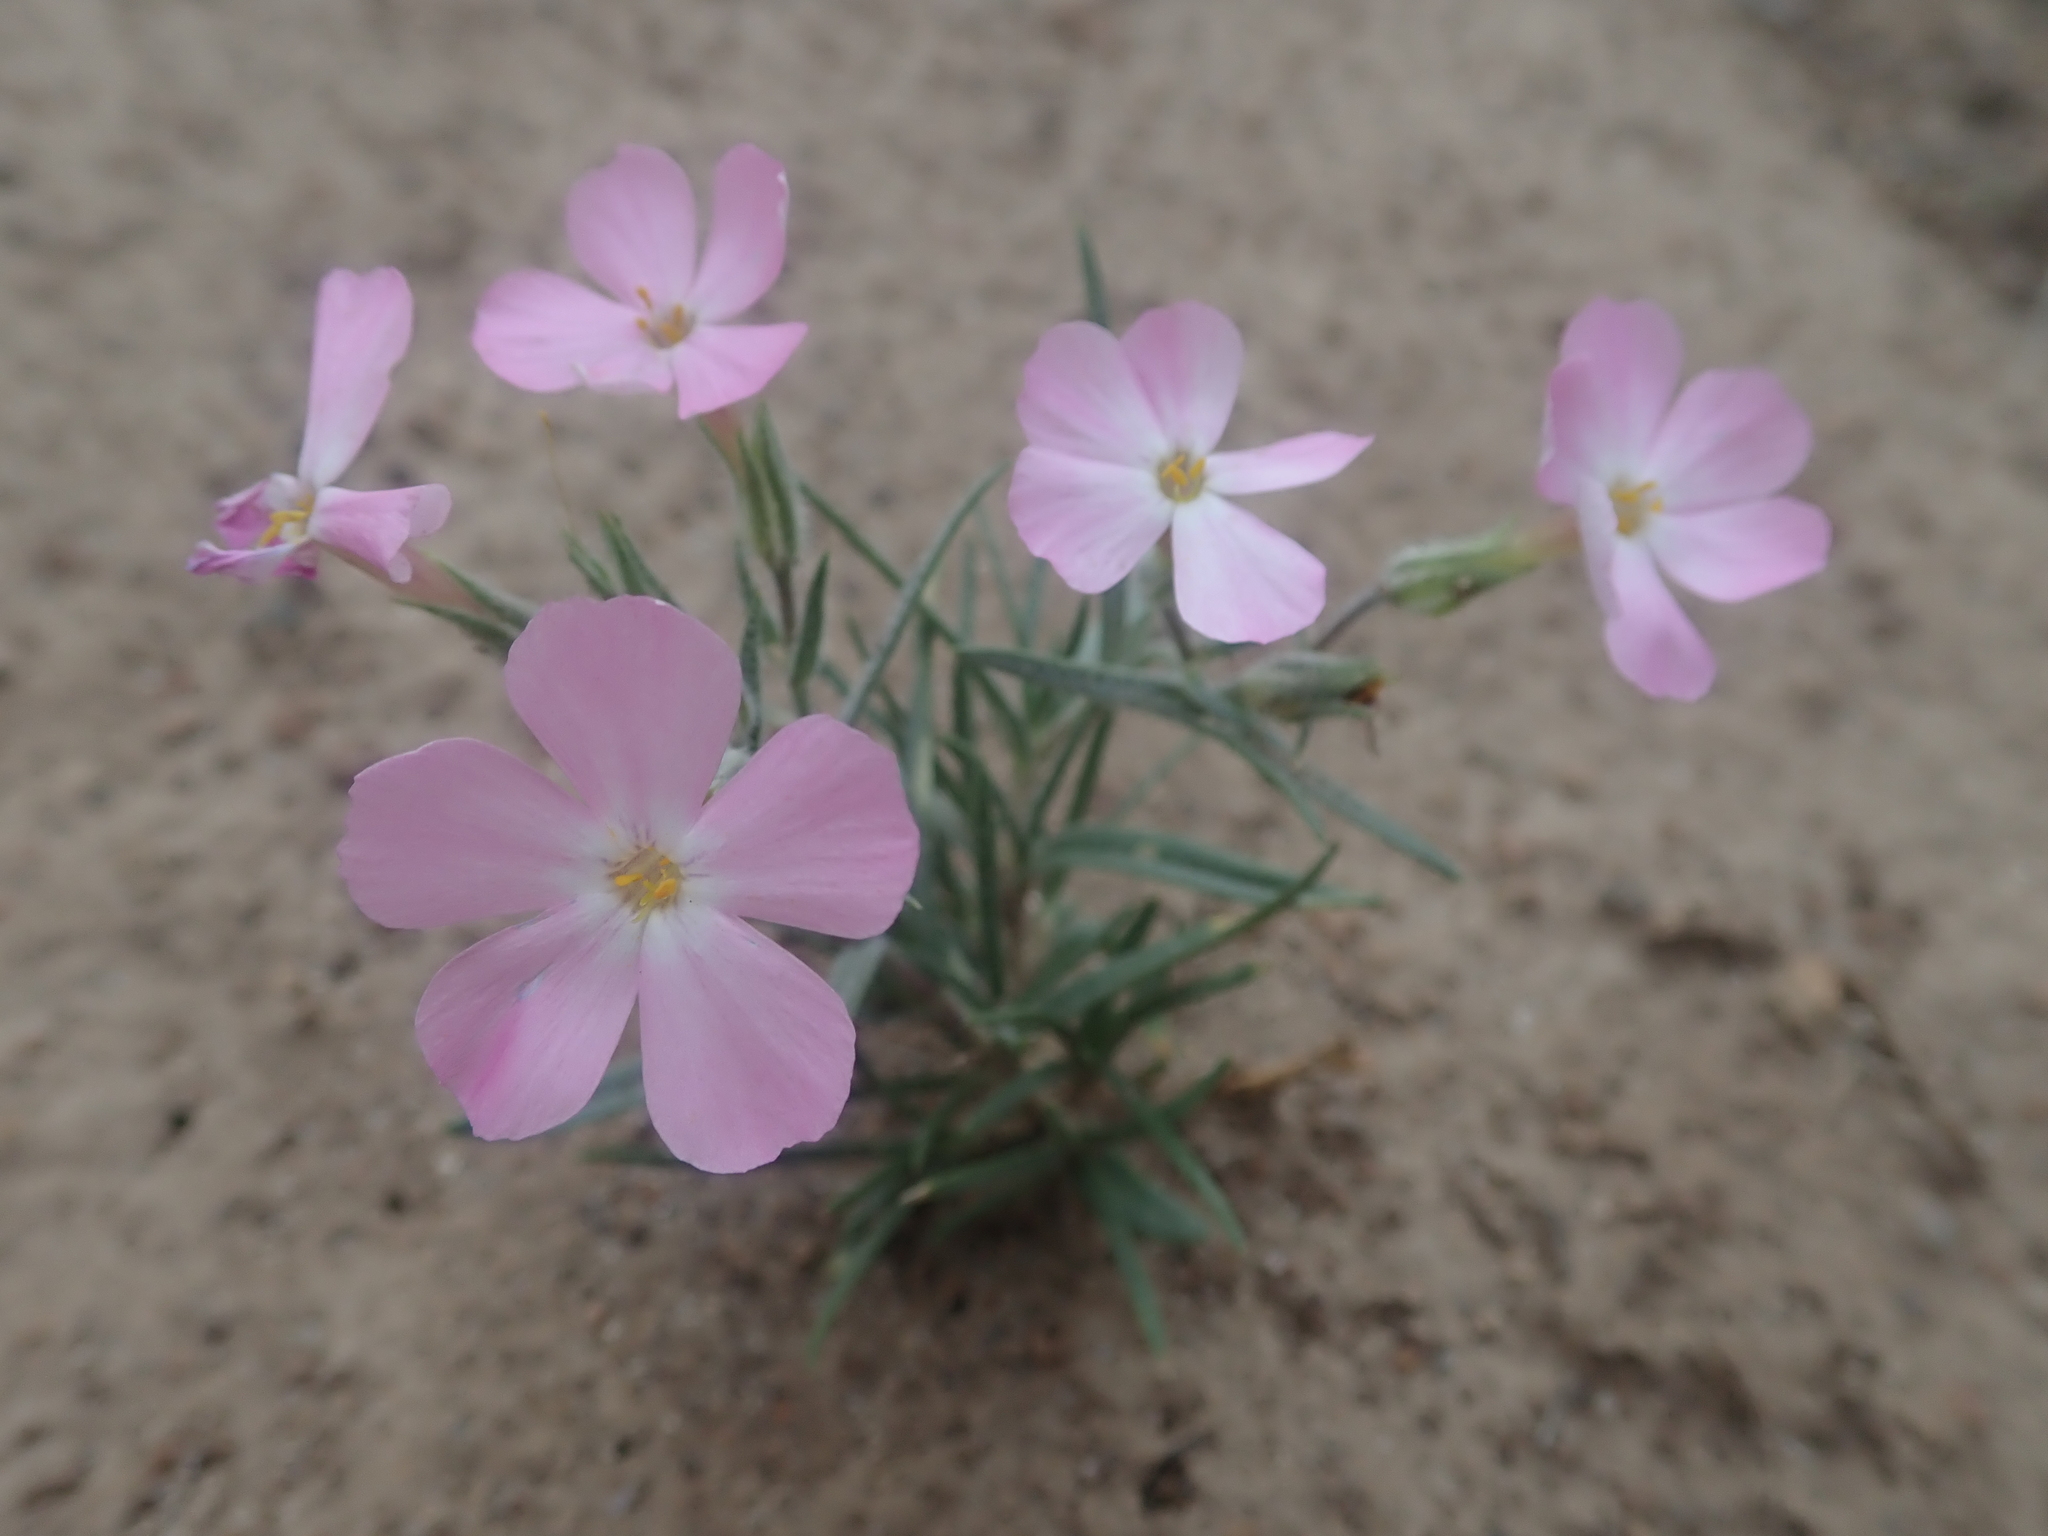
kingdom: Plantae
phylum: Tracheophyta
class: Magnoliopsida
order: Ericales
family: Polemoniaceae
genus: Phlox
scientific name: Phlox longifolia
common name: Longleaf phlox
